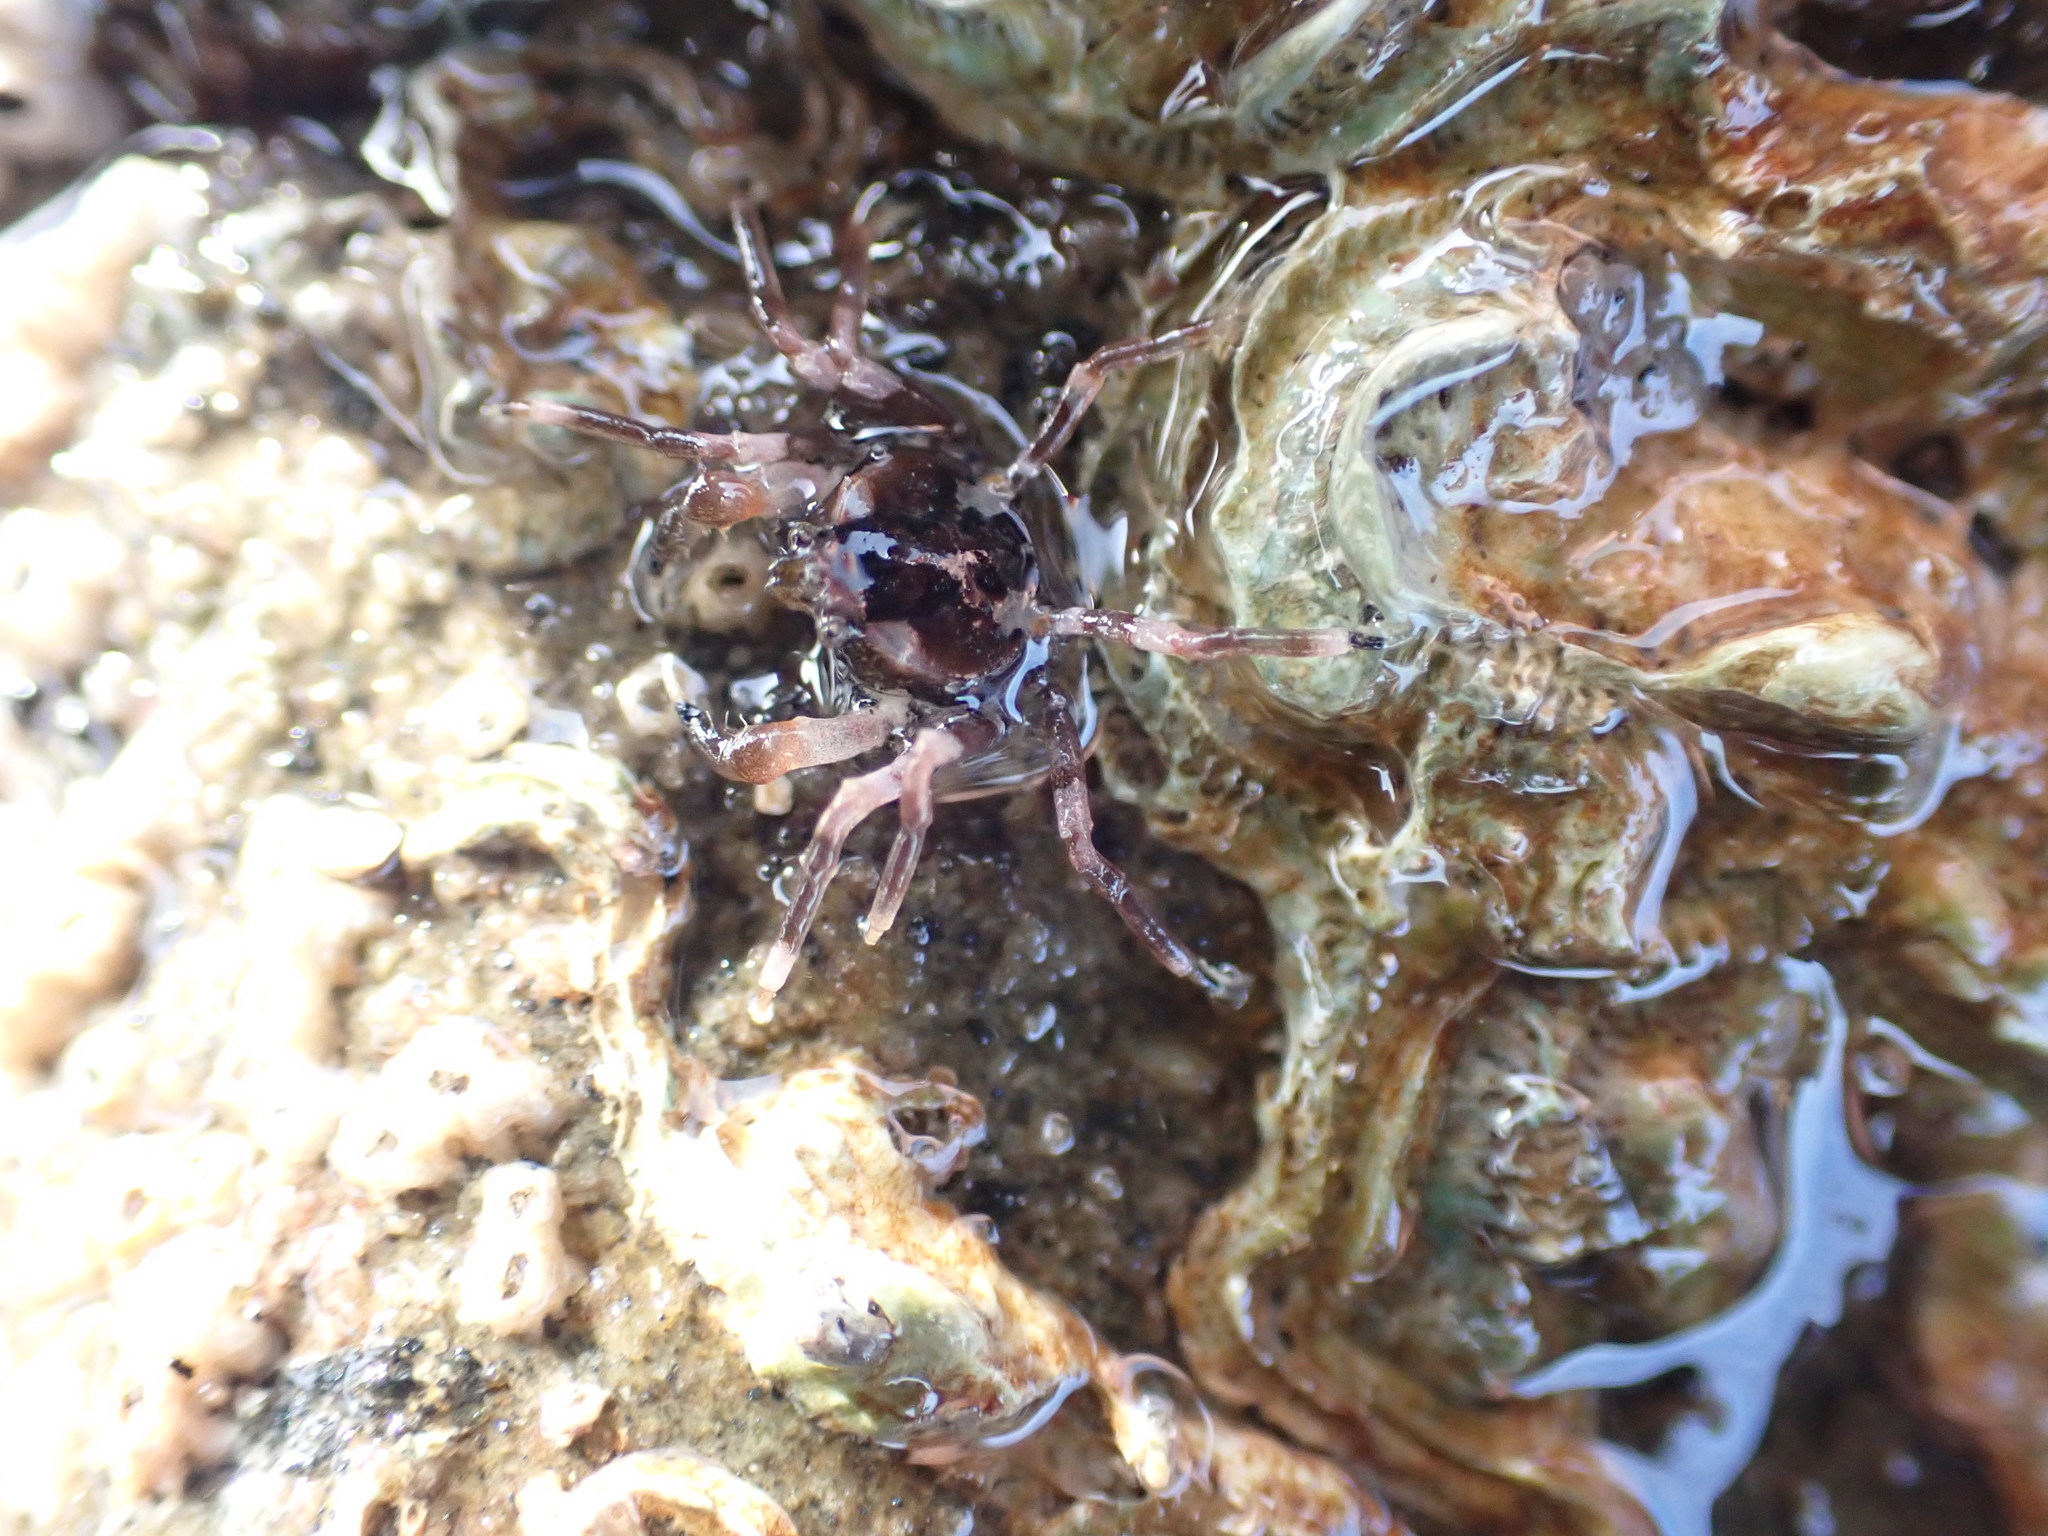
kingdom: Animalia
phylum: Arthropoda
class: Malacostraca
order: Decapoda
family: Hymenosomatidae
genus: Halicarcinus
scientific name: Halicarcinus quoyi
